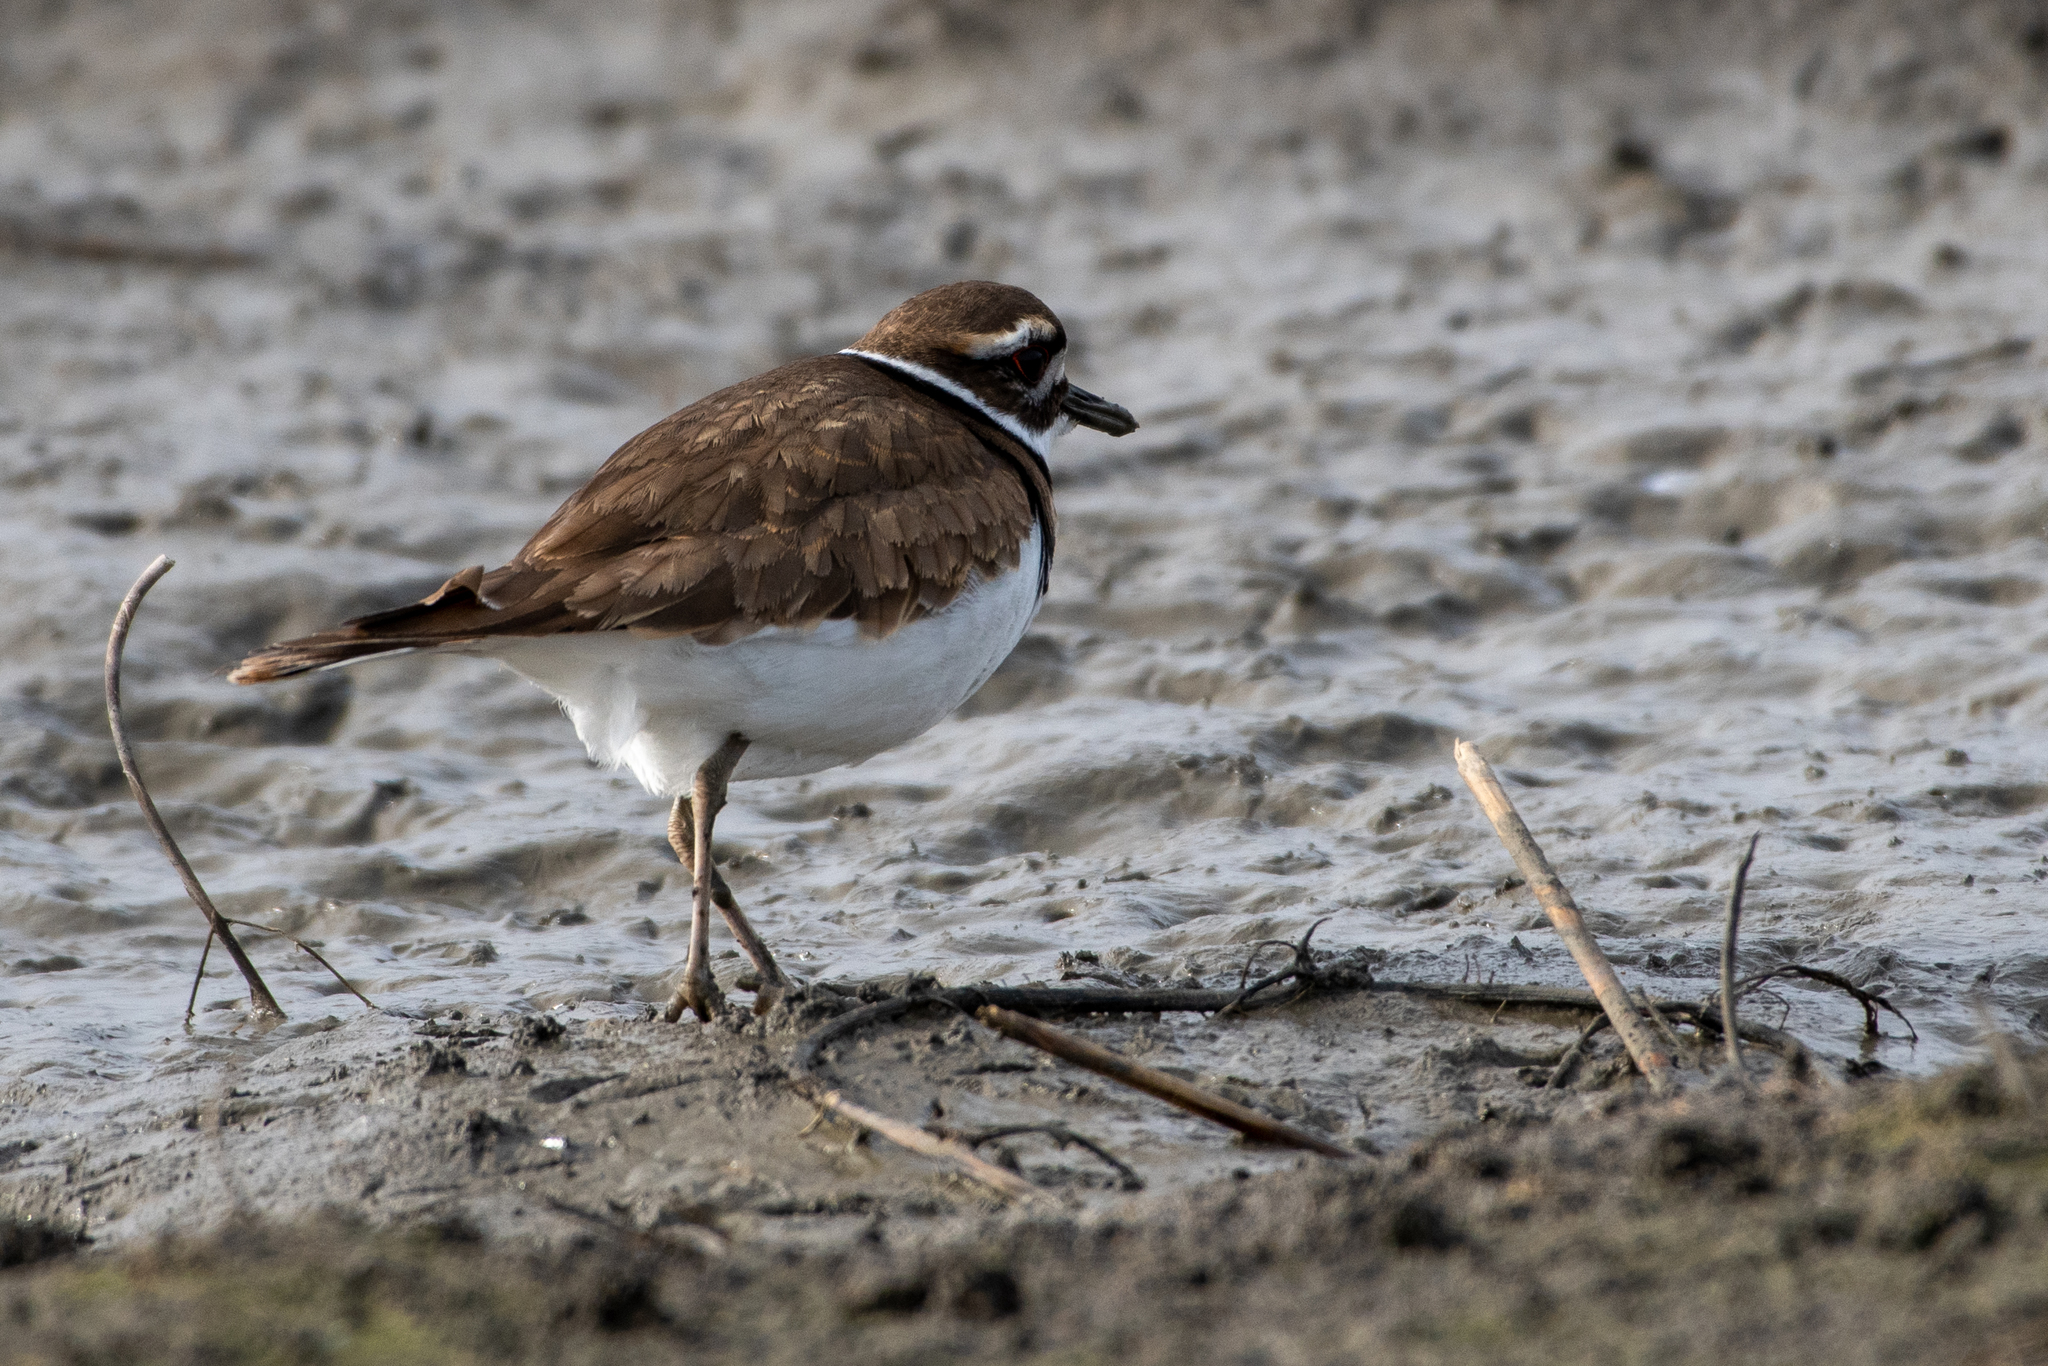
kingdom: Animalia
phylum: Chordata
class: Aves
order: Charadriiformes
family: Charadriidae
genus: Charadrius
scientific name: Charadrius vociferus
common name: Killdeer
